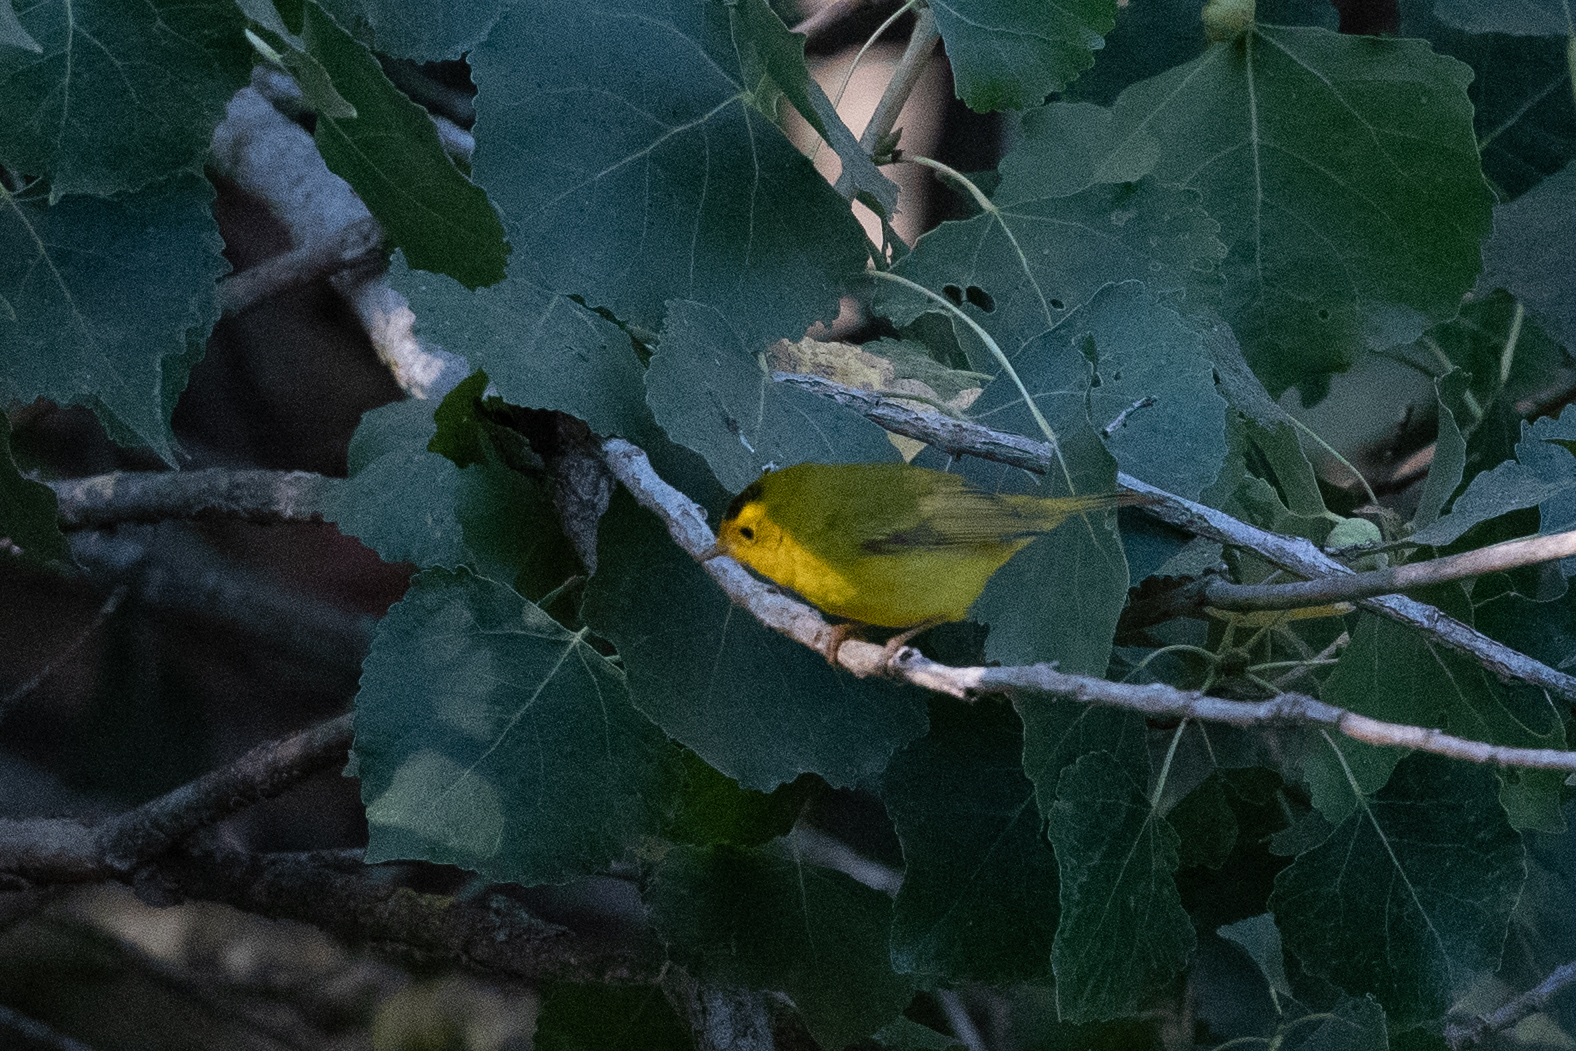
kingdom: Animalia
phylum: Chordata
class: Aves
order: Passeriformes
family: Parulidae
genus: Cardellina
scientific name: Cardellina pusilla
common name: Wilson's warbler
